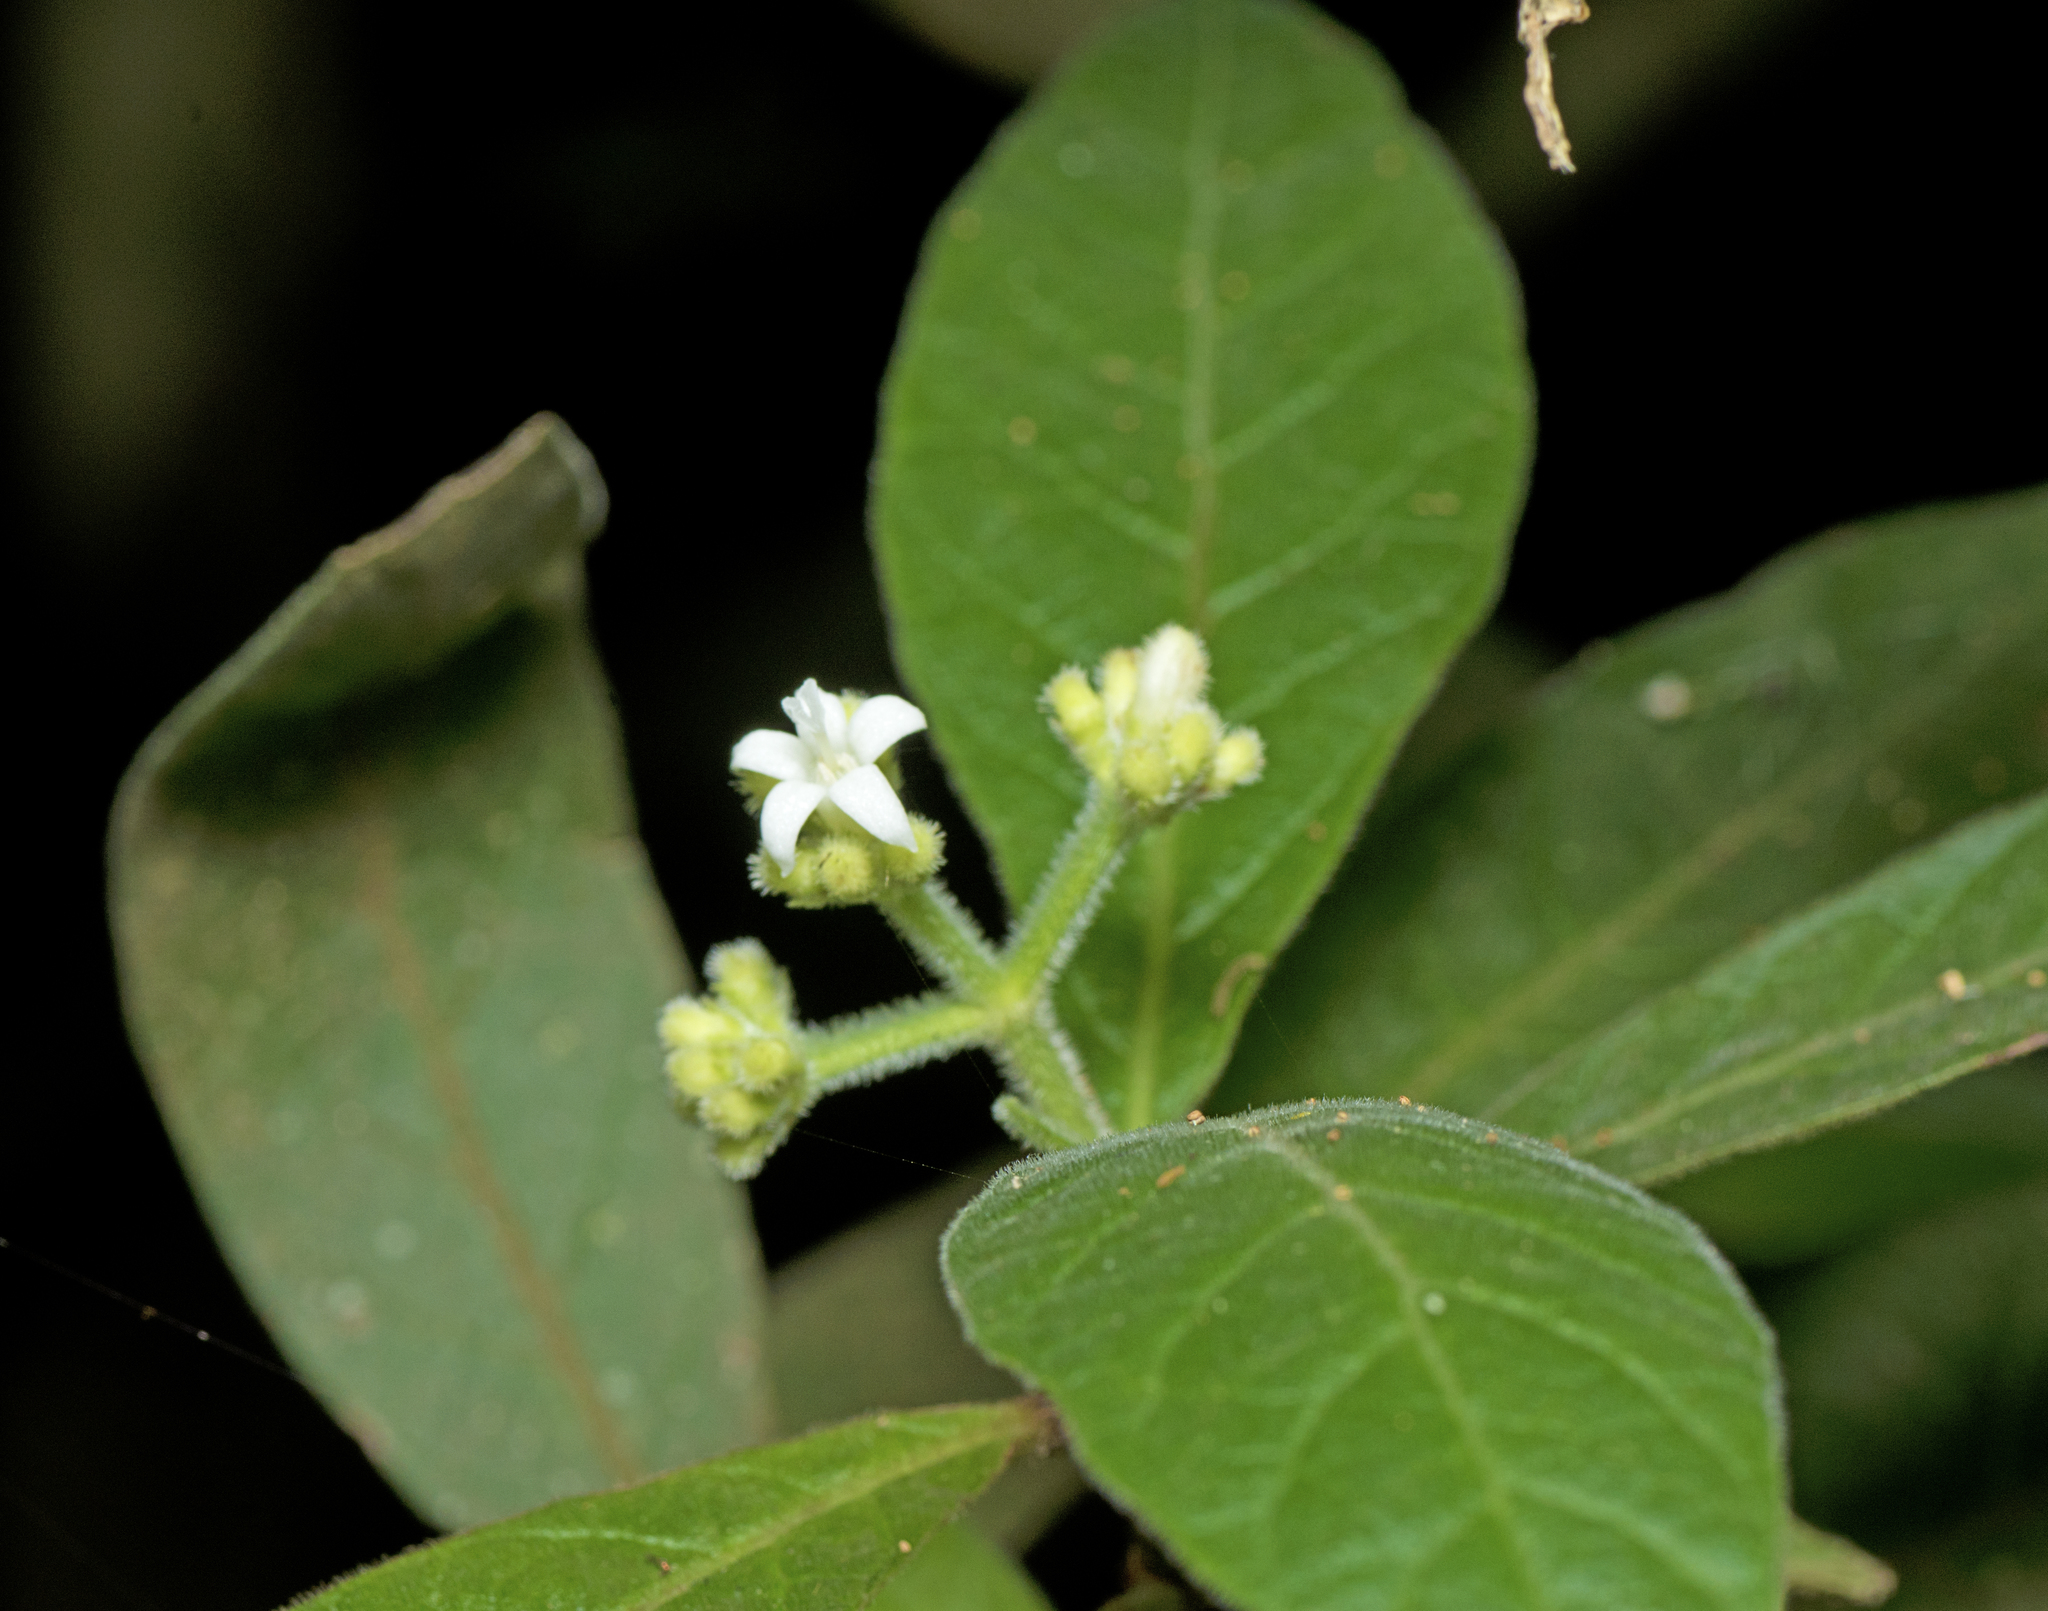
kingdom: Plantae
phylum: Tracheophyta
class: Magnoliopsida
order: Gentianales
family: Rubiaceae
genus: Psychotria
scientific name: Psychotria loniceroides
